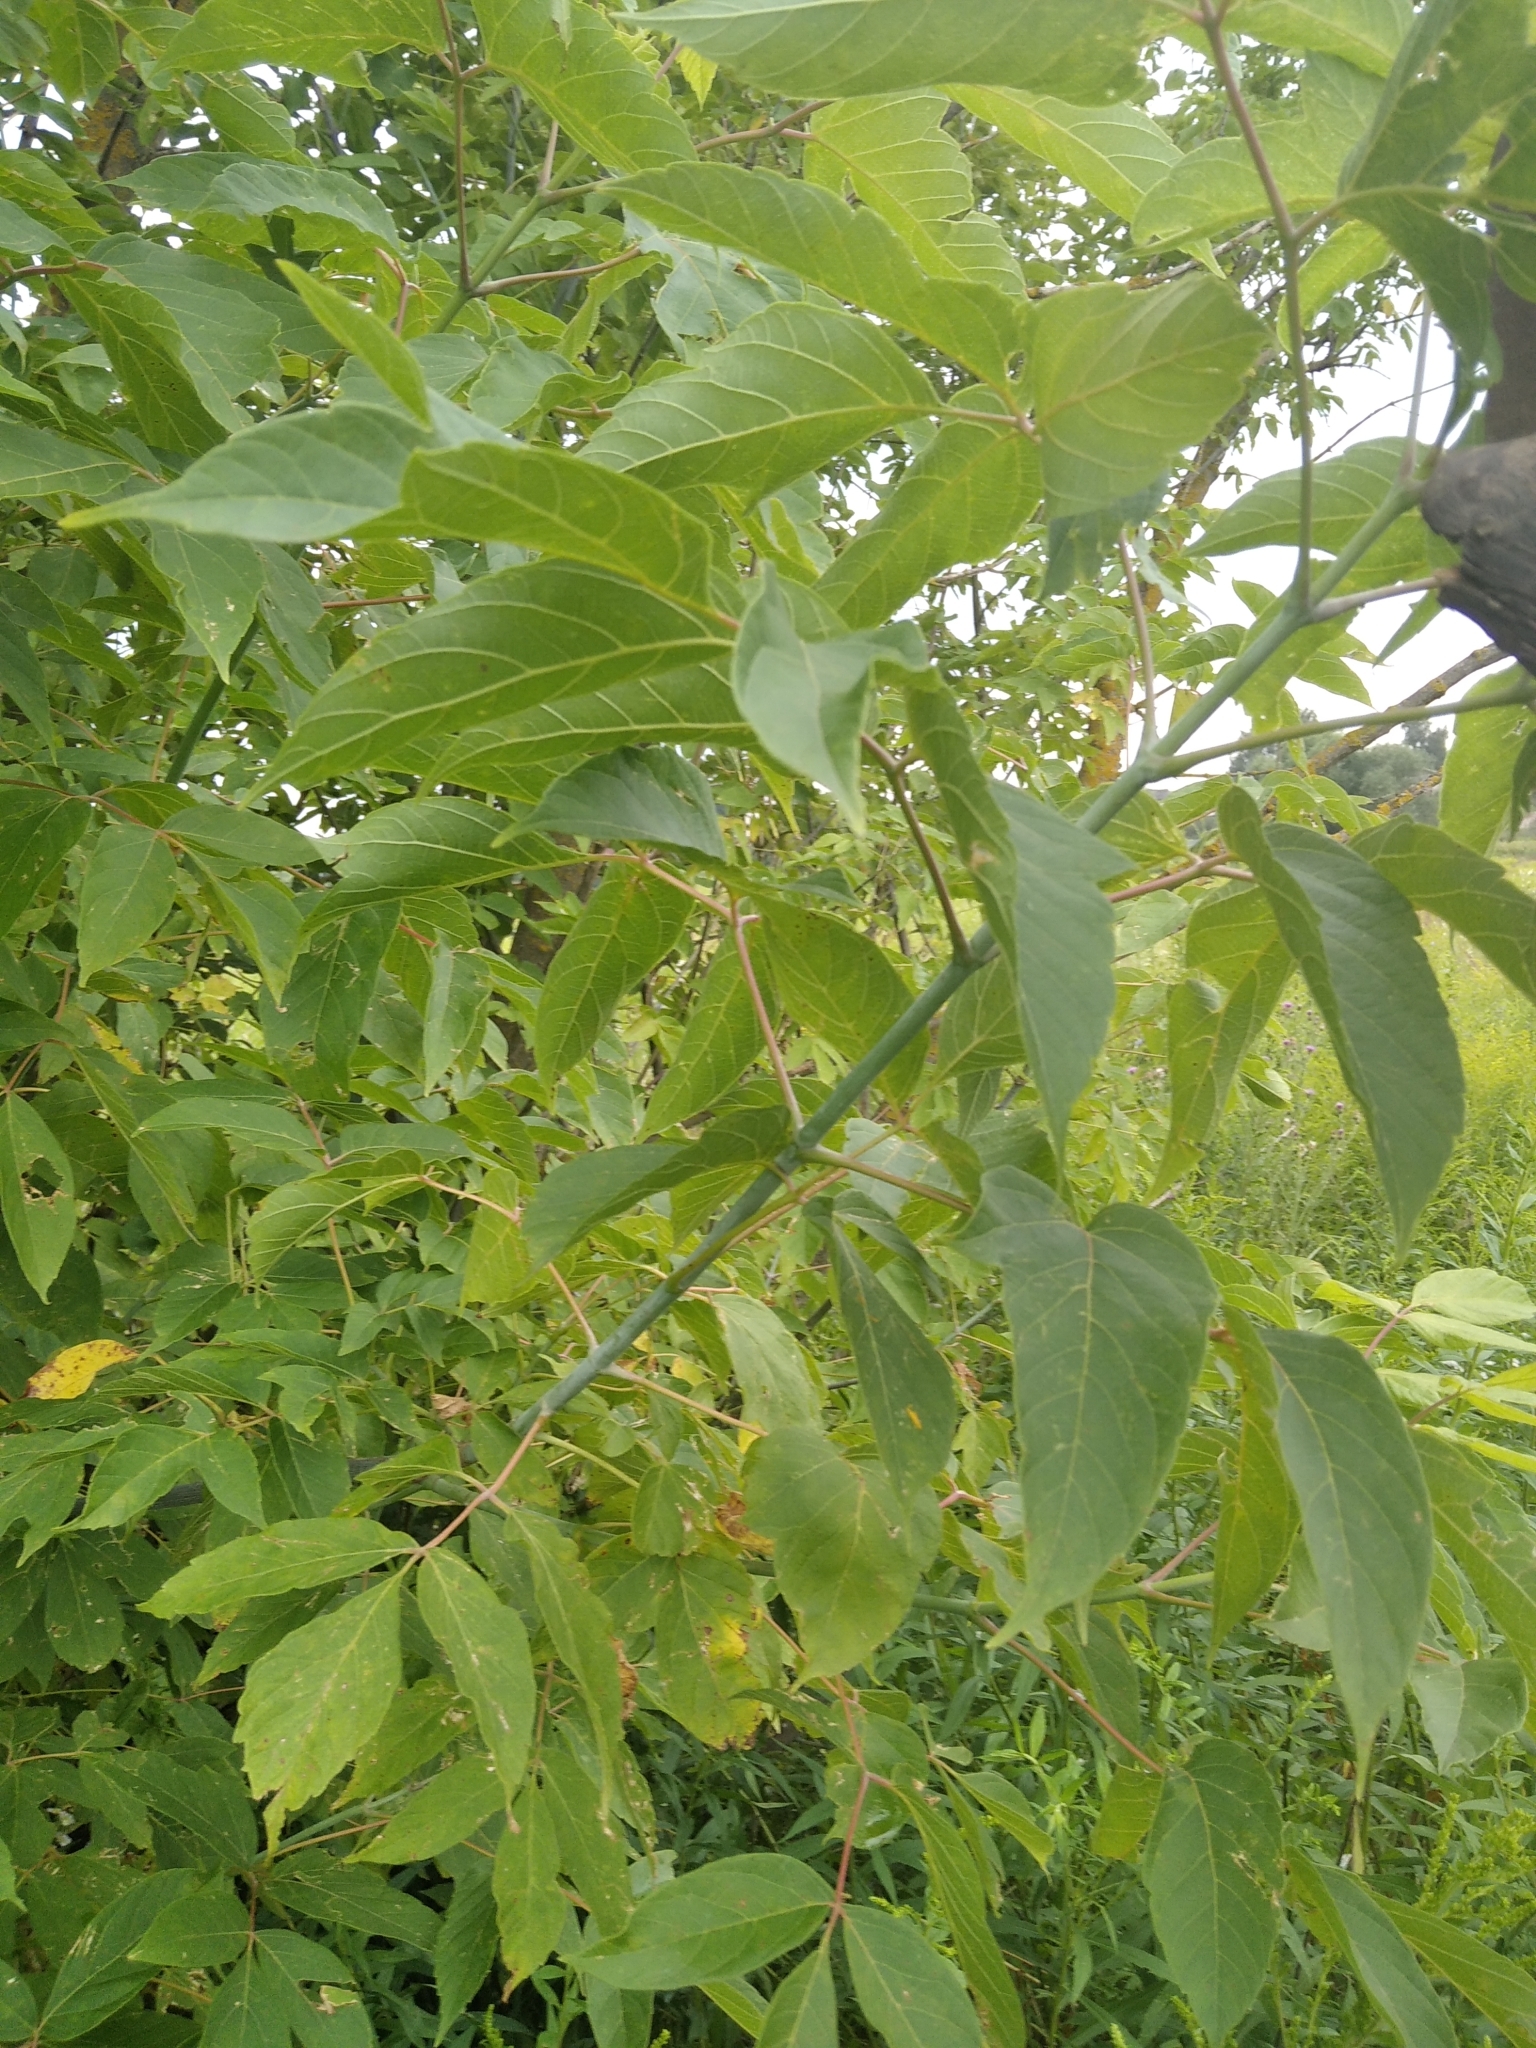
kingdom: Plantae
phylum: Tracheophyta
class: Magnoliopsida
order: Sapindales
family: Sapindaceae
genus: Acer
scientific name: Acer negundo
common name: Ashleaf maple
